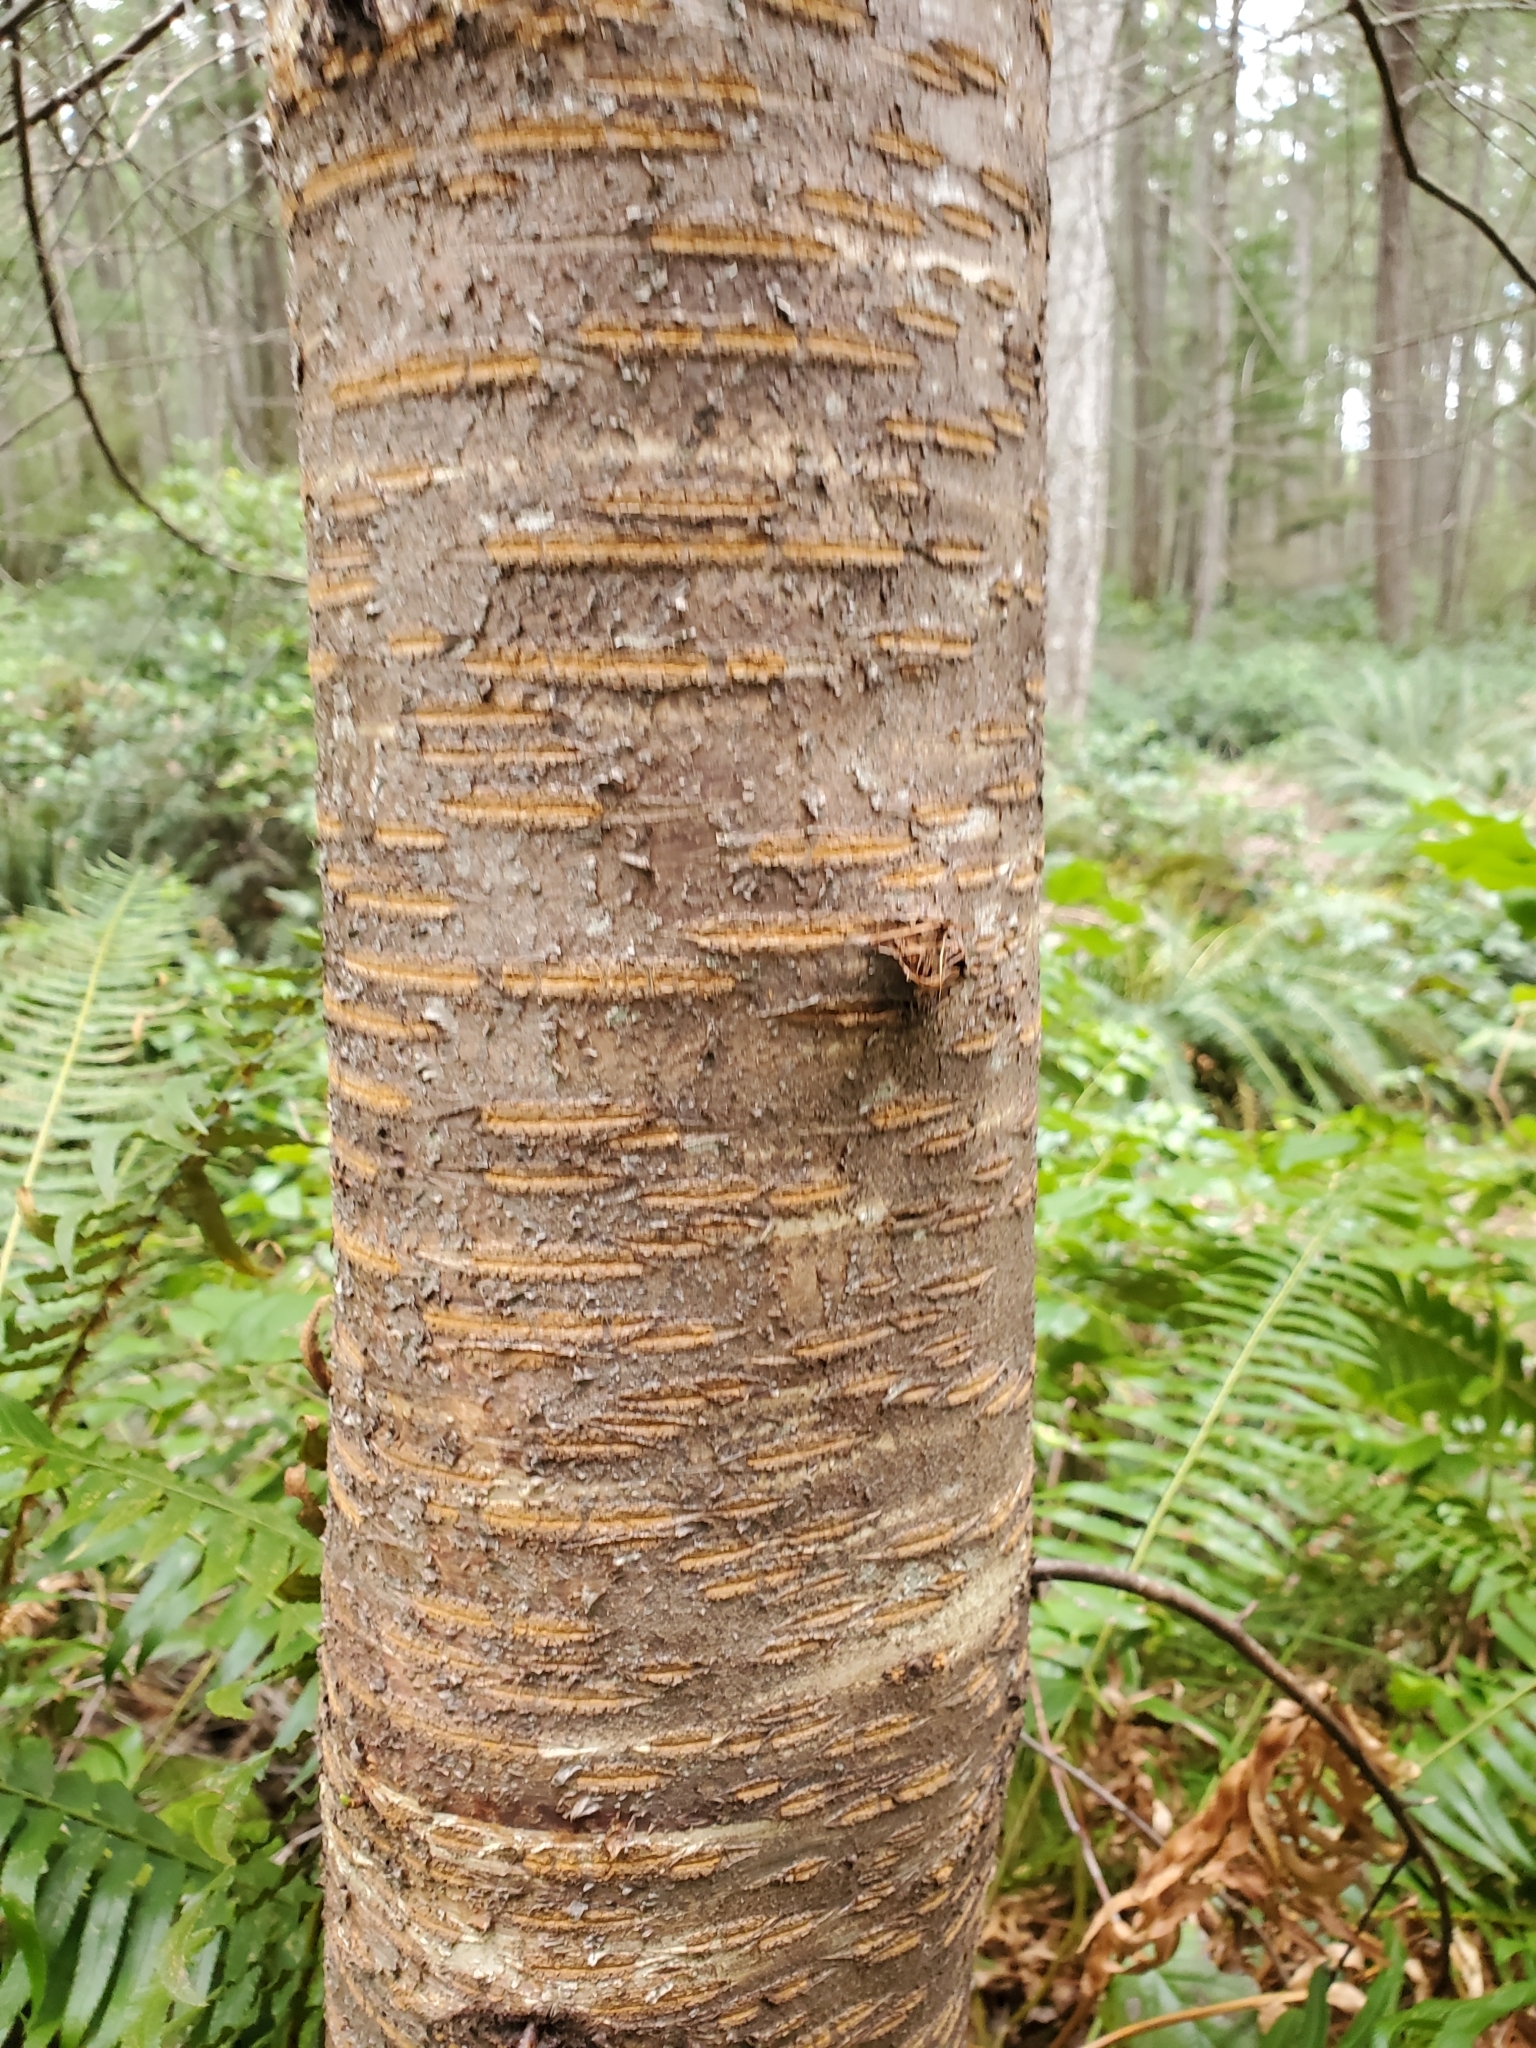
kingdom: Plantae
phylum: Tracheophyta
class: Magnoliopsida
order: Rosales
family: Rosaceae
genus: Prunus
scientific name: Prunus emarginata
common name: Bitter cherry
